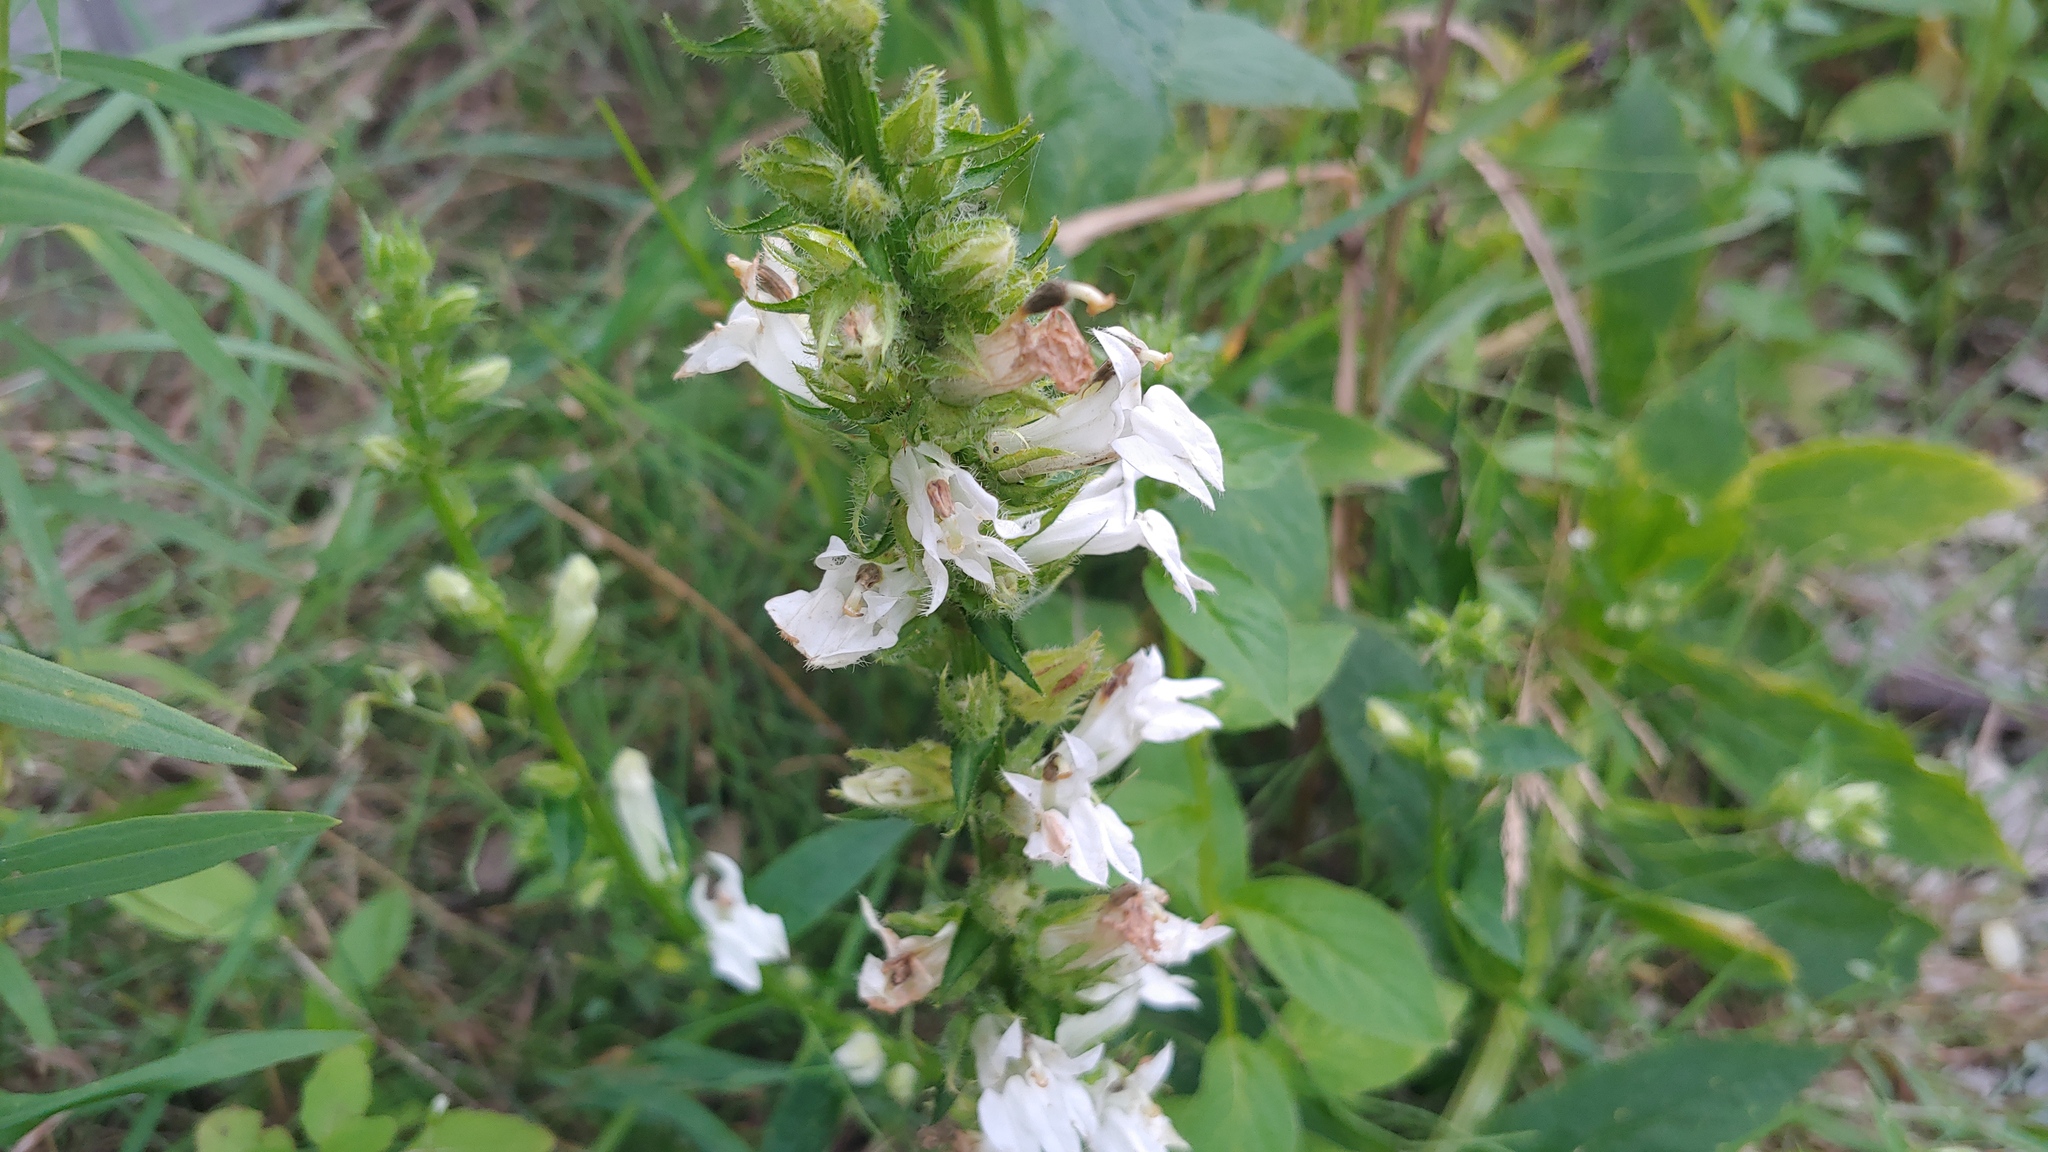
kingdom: Plantae
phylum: Tracheophyta
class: Magnoliopsida
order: Asterales
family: Campanulaceae
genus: Lobelia
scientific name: Lobelia siphilitica
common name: Great lobelia
